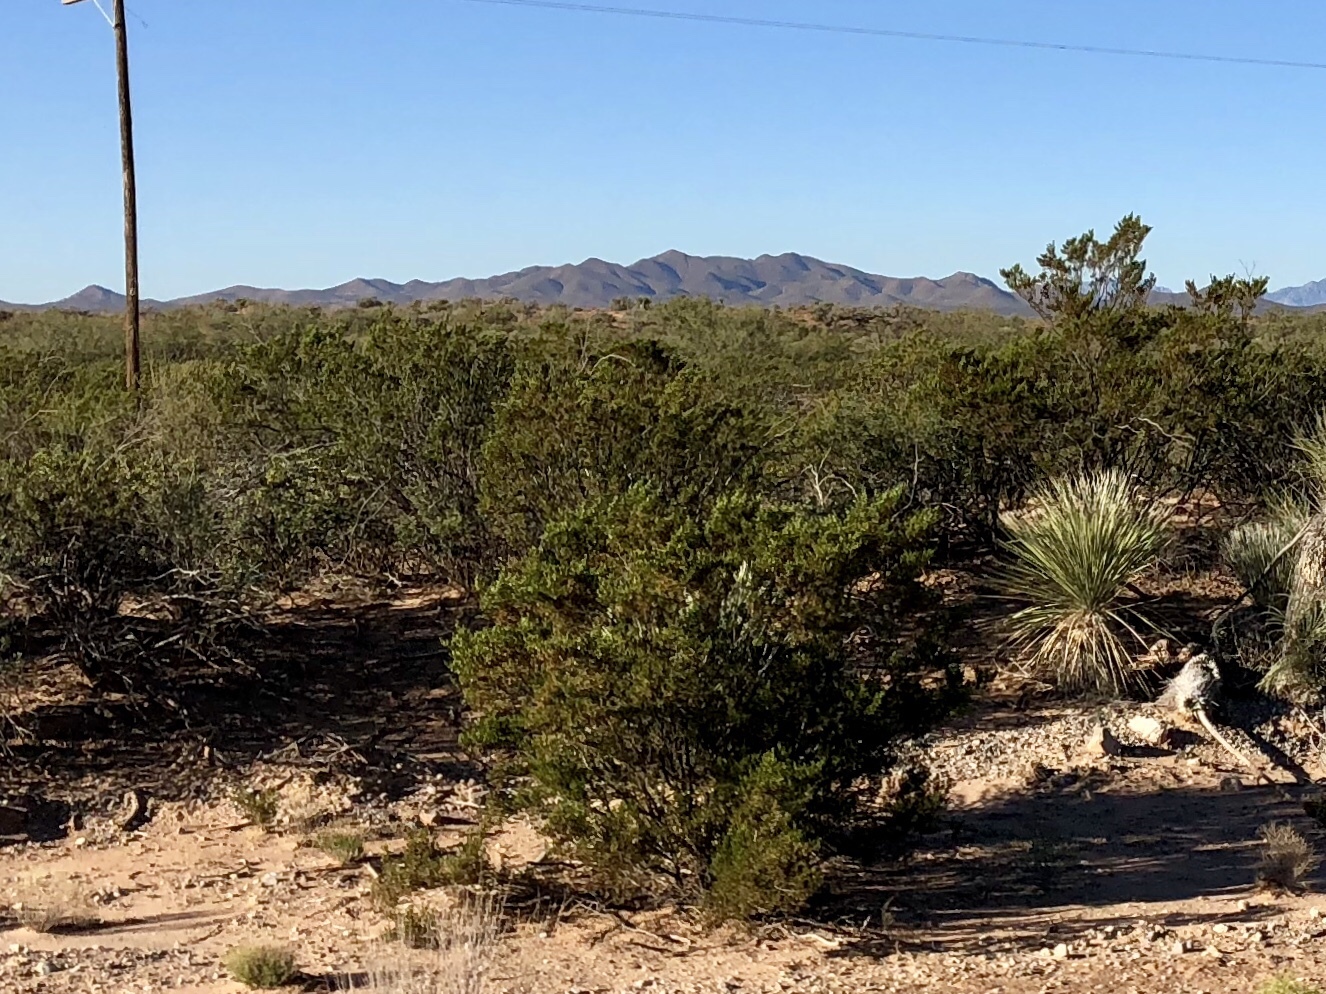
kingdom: Plantae
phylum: Tracheophyta
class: Magnoliopsida
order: Zygophyllales
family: Zygophyllaceae
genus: Larrea
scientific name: Larrea tridentata
